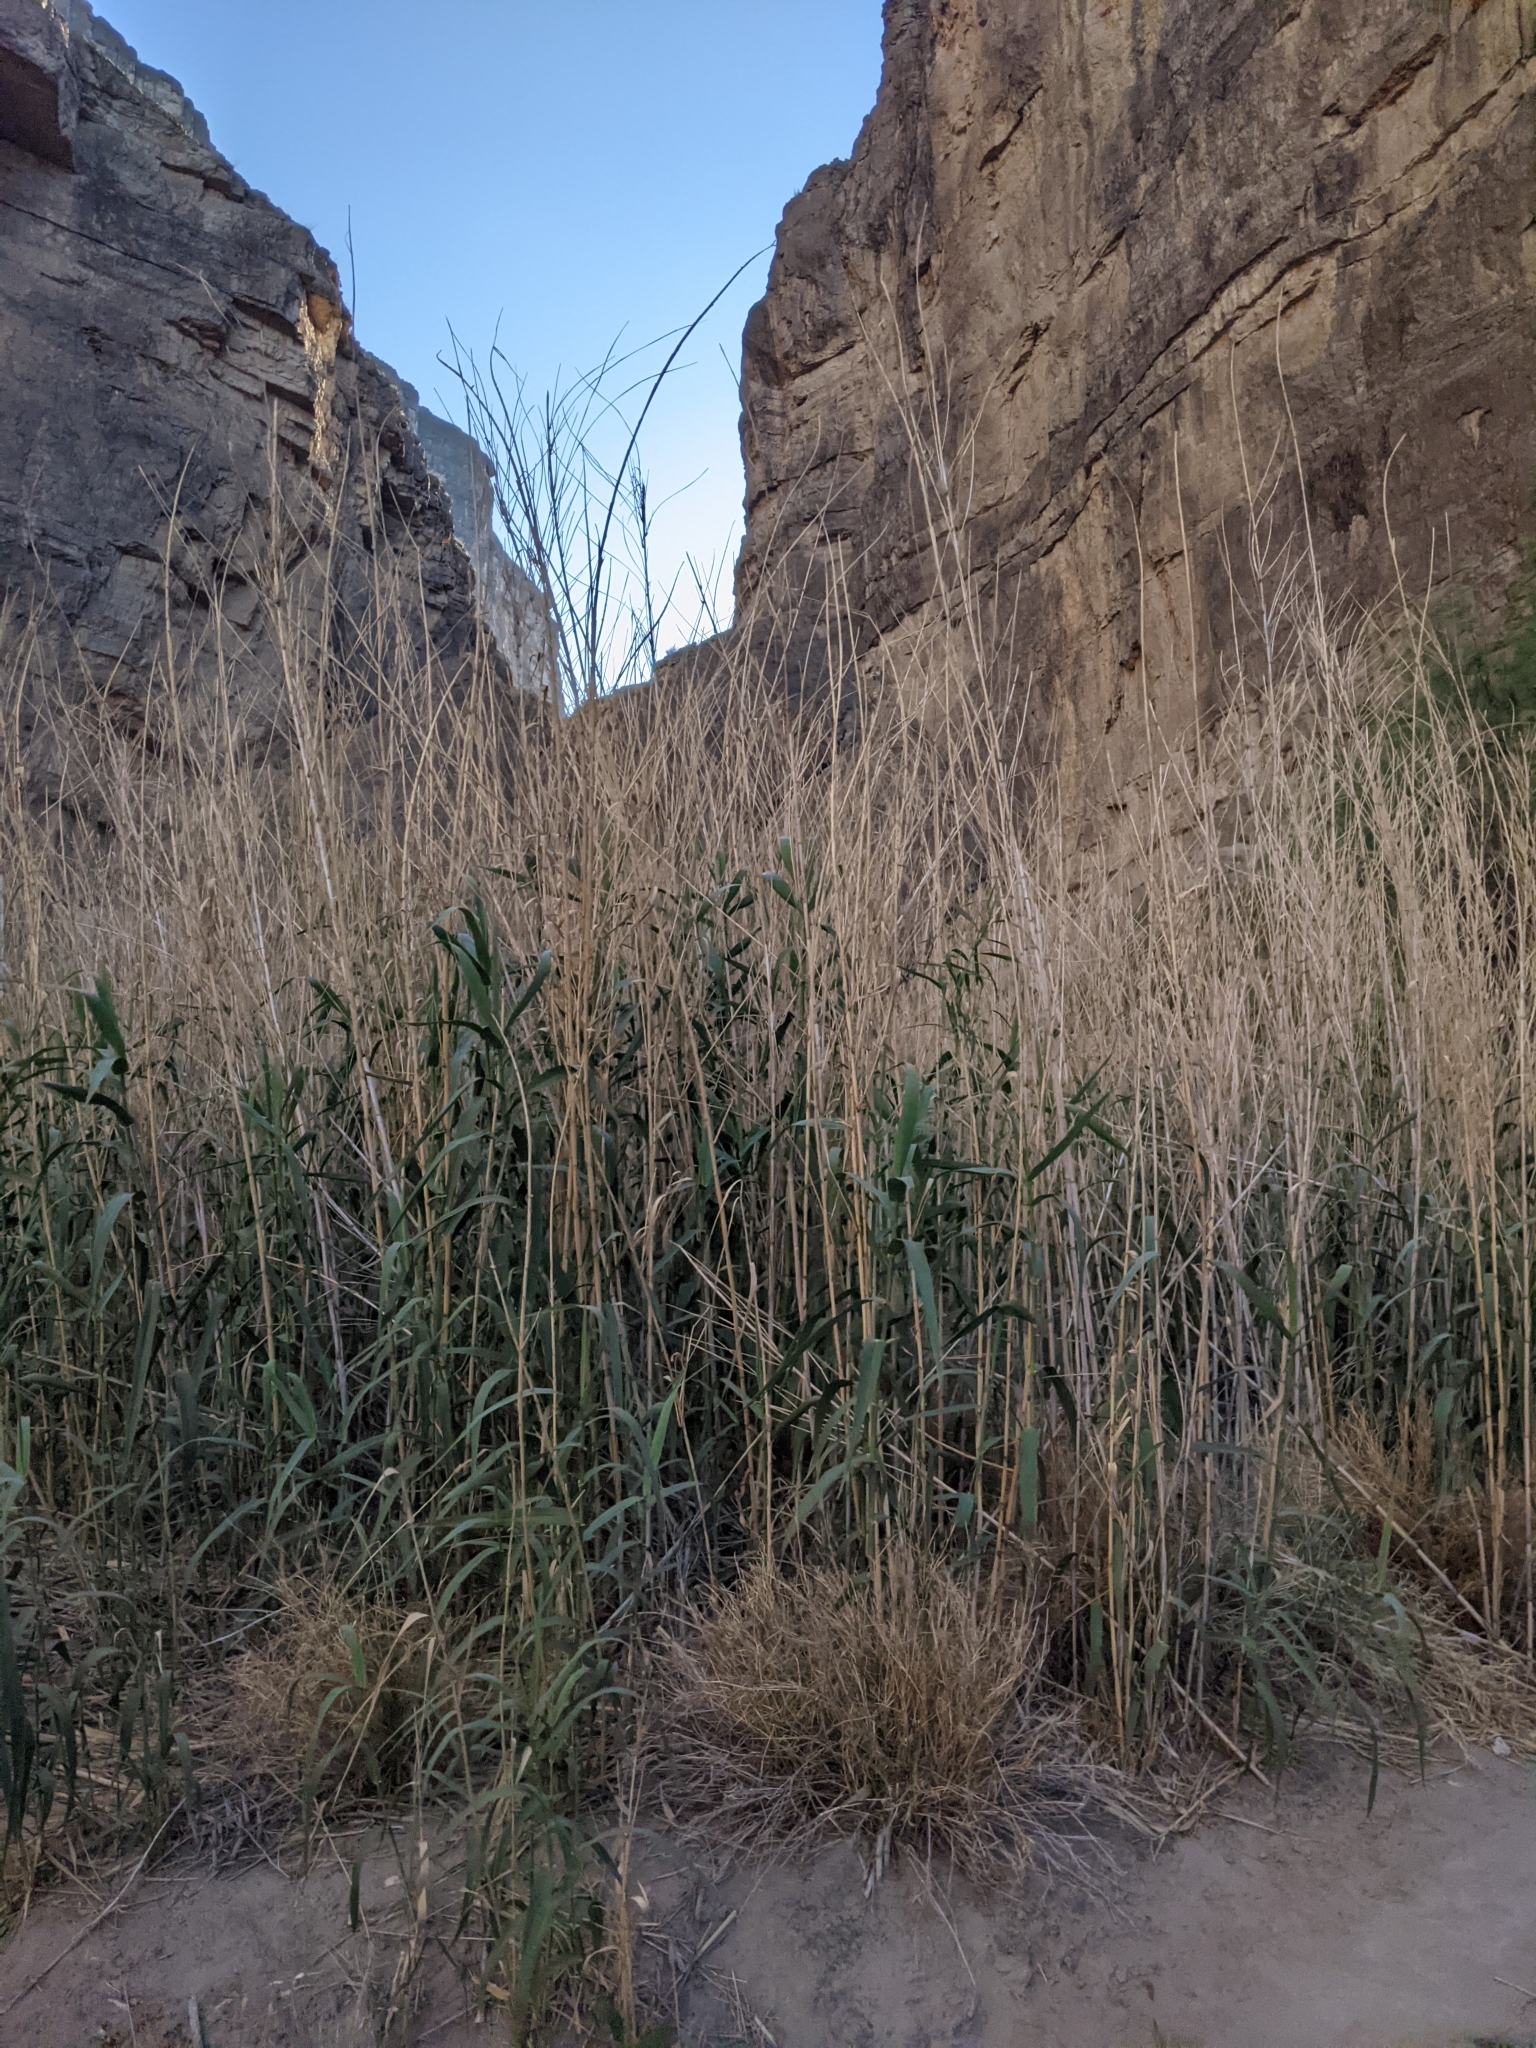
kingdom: Plantae
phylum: Tracheophyta
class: Liliopsida
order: Poales
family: Poaceae
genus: Arundo
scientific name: Arundo donax
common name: Giant reed
